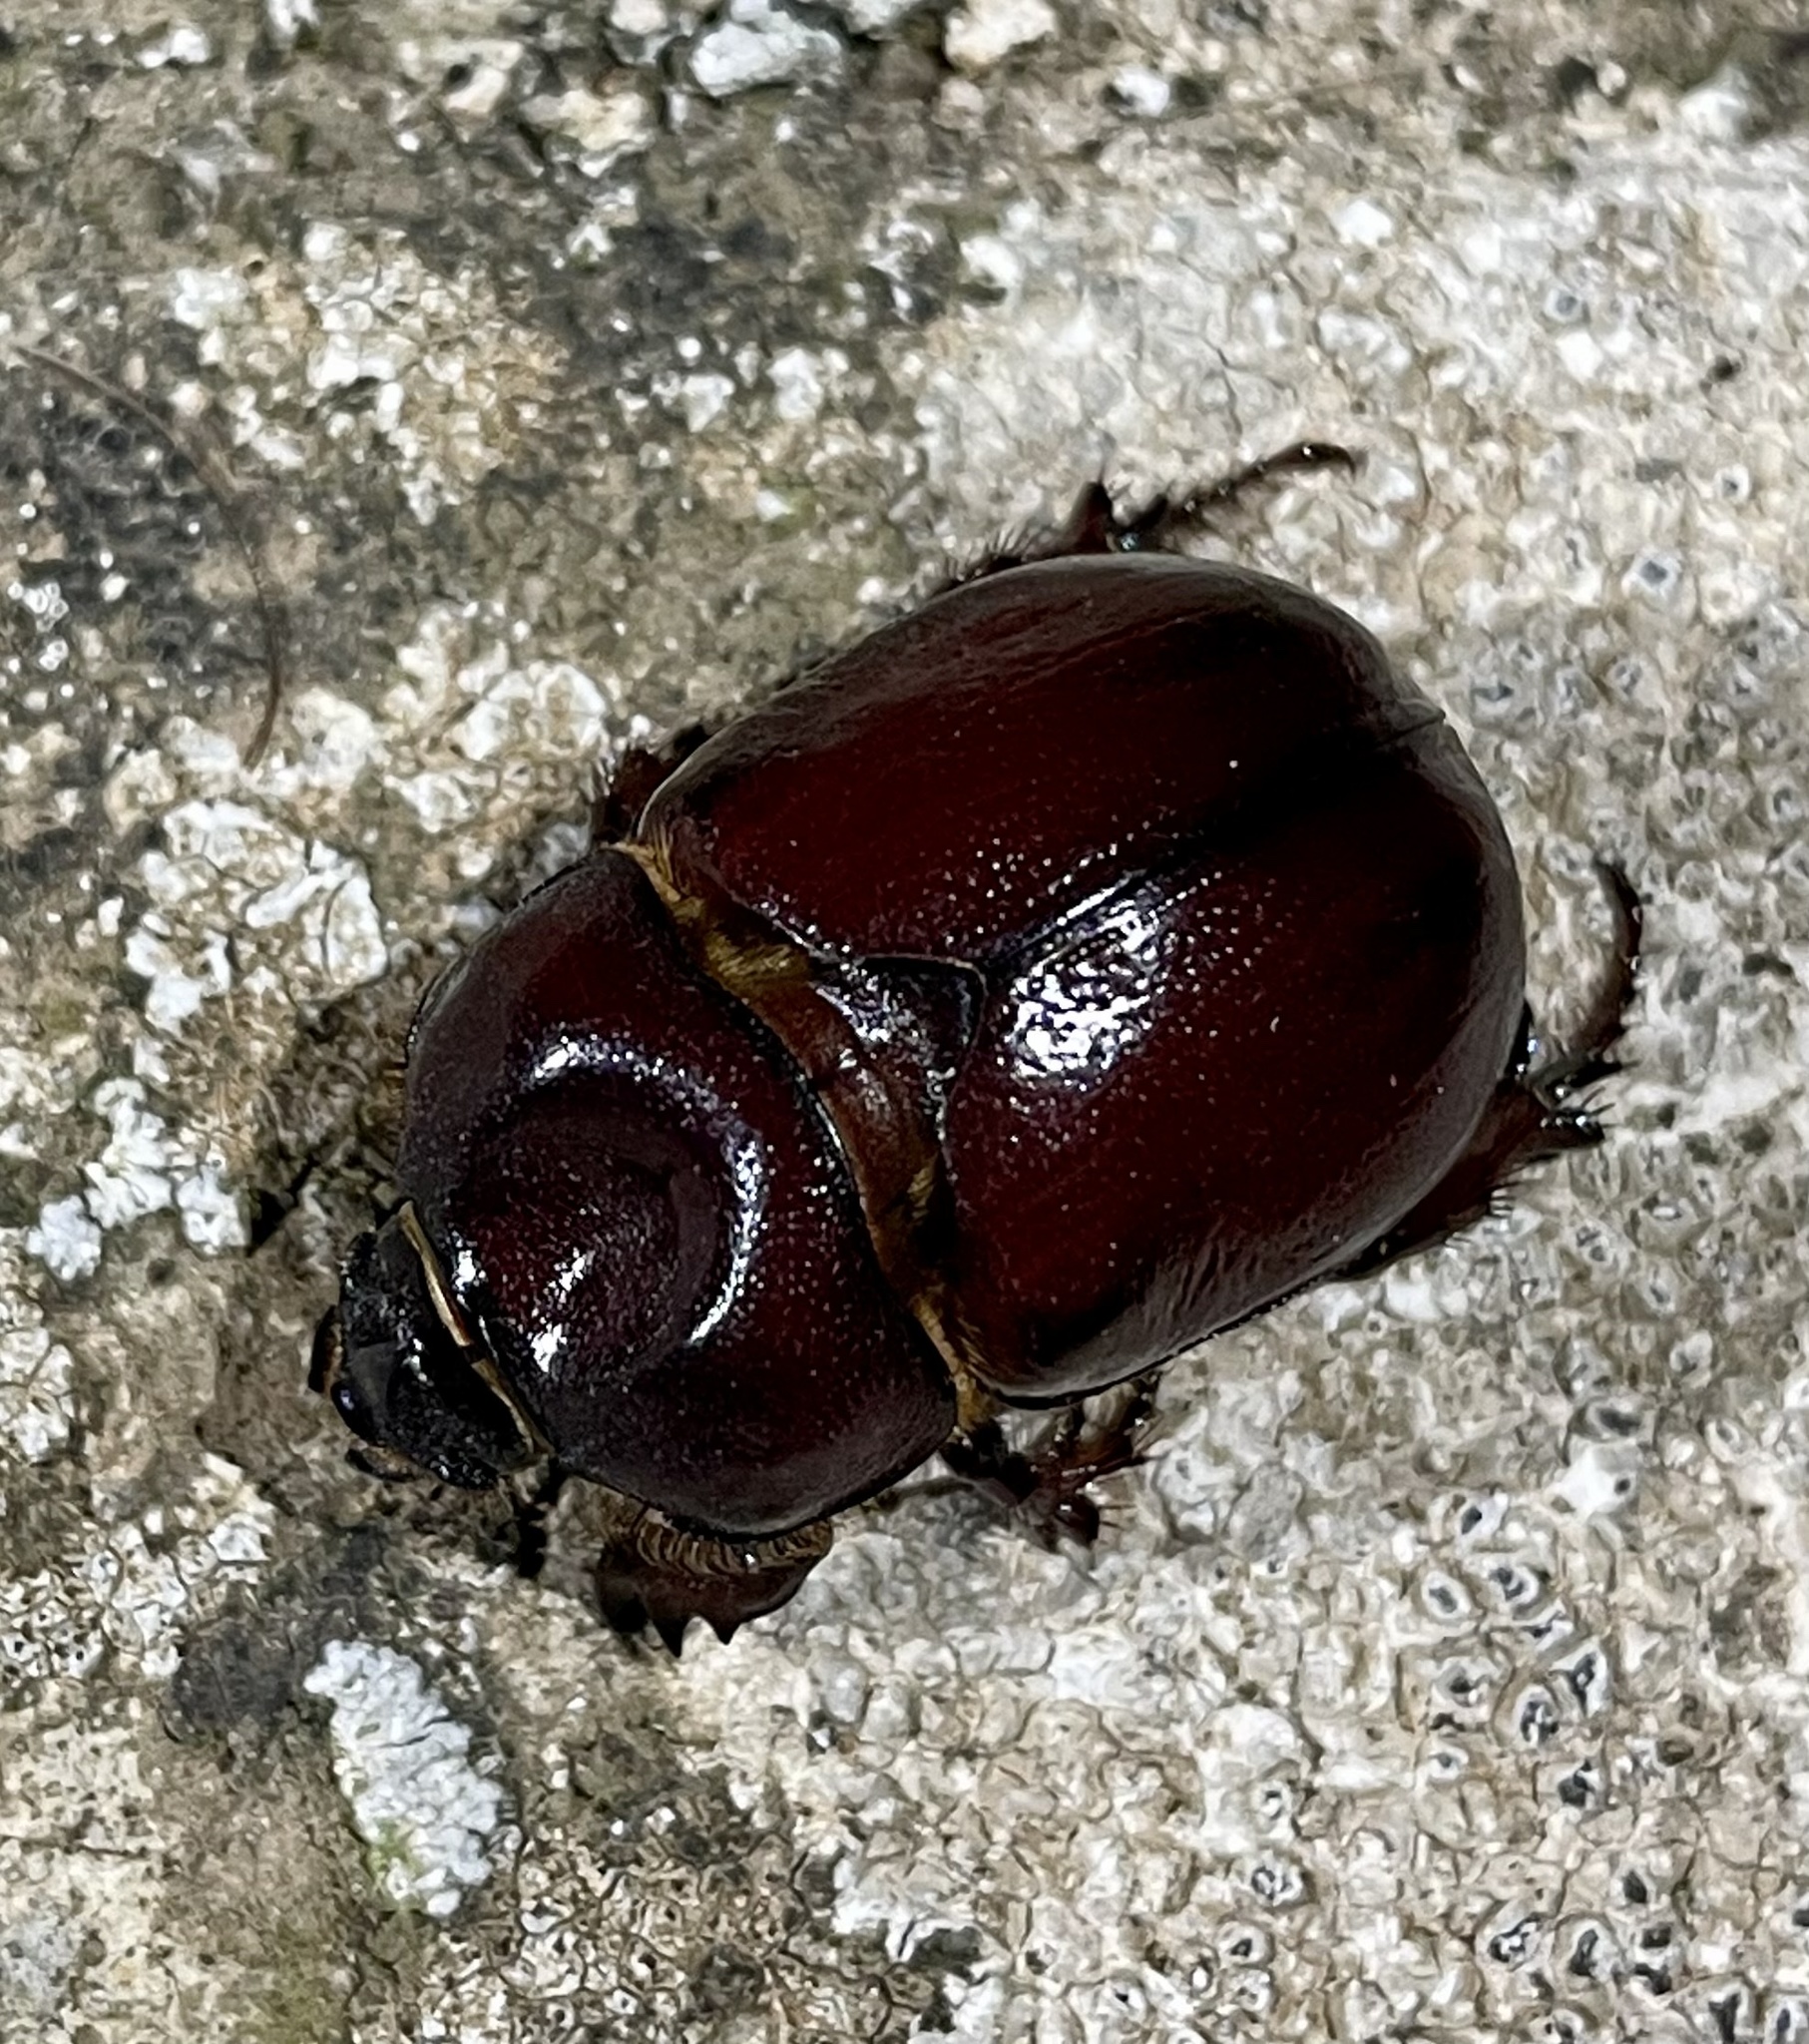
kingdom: Animalia
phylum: Arthropoda
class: Insecta
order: Coleoptera
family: Scarabaeidae
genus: Phyllognathus
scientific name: Phyllognathus excavatus
